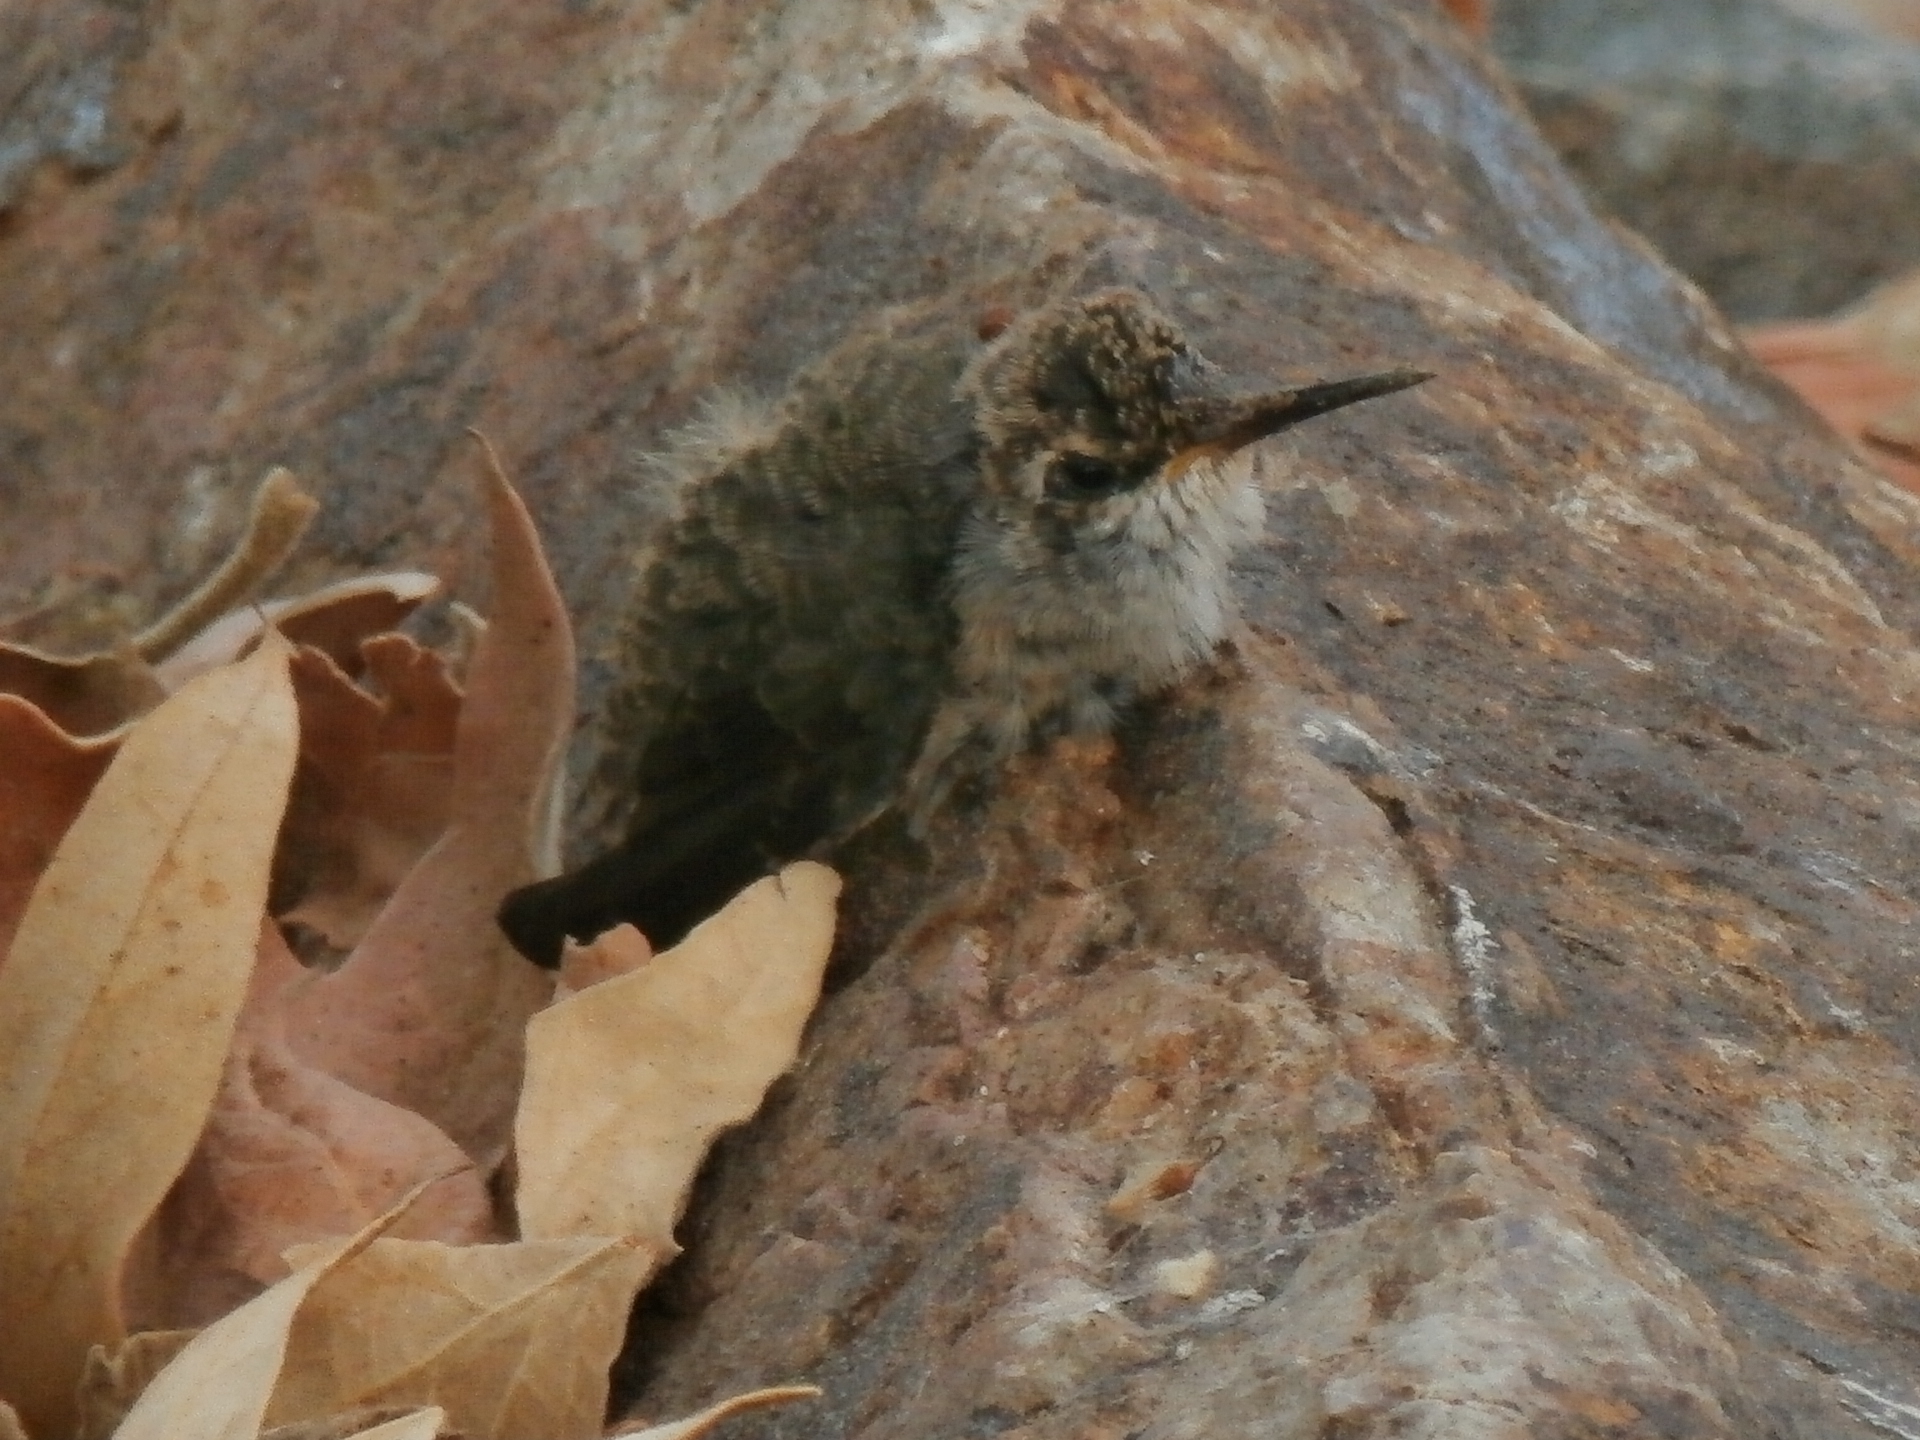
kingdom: Animalia
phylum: Chordata
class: Aves
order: Apodiformes
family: Trochilidae
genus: Calypte
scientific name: Calypte anna
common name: Anna's hummingbird
